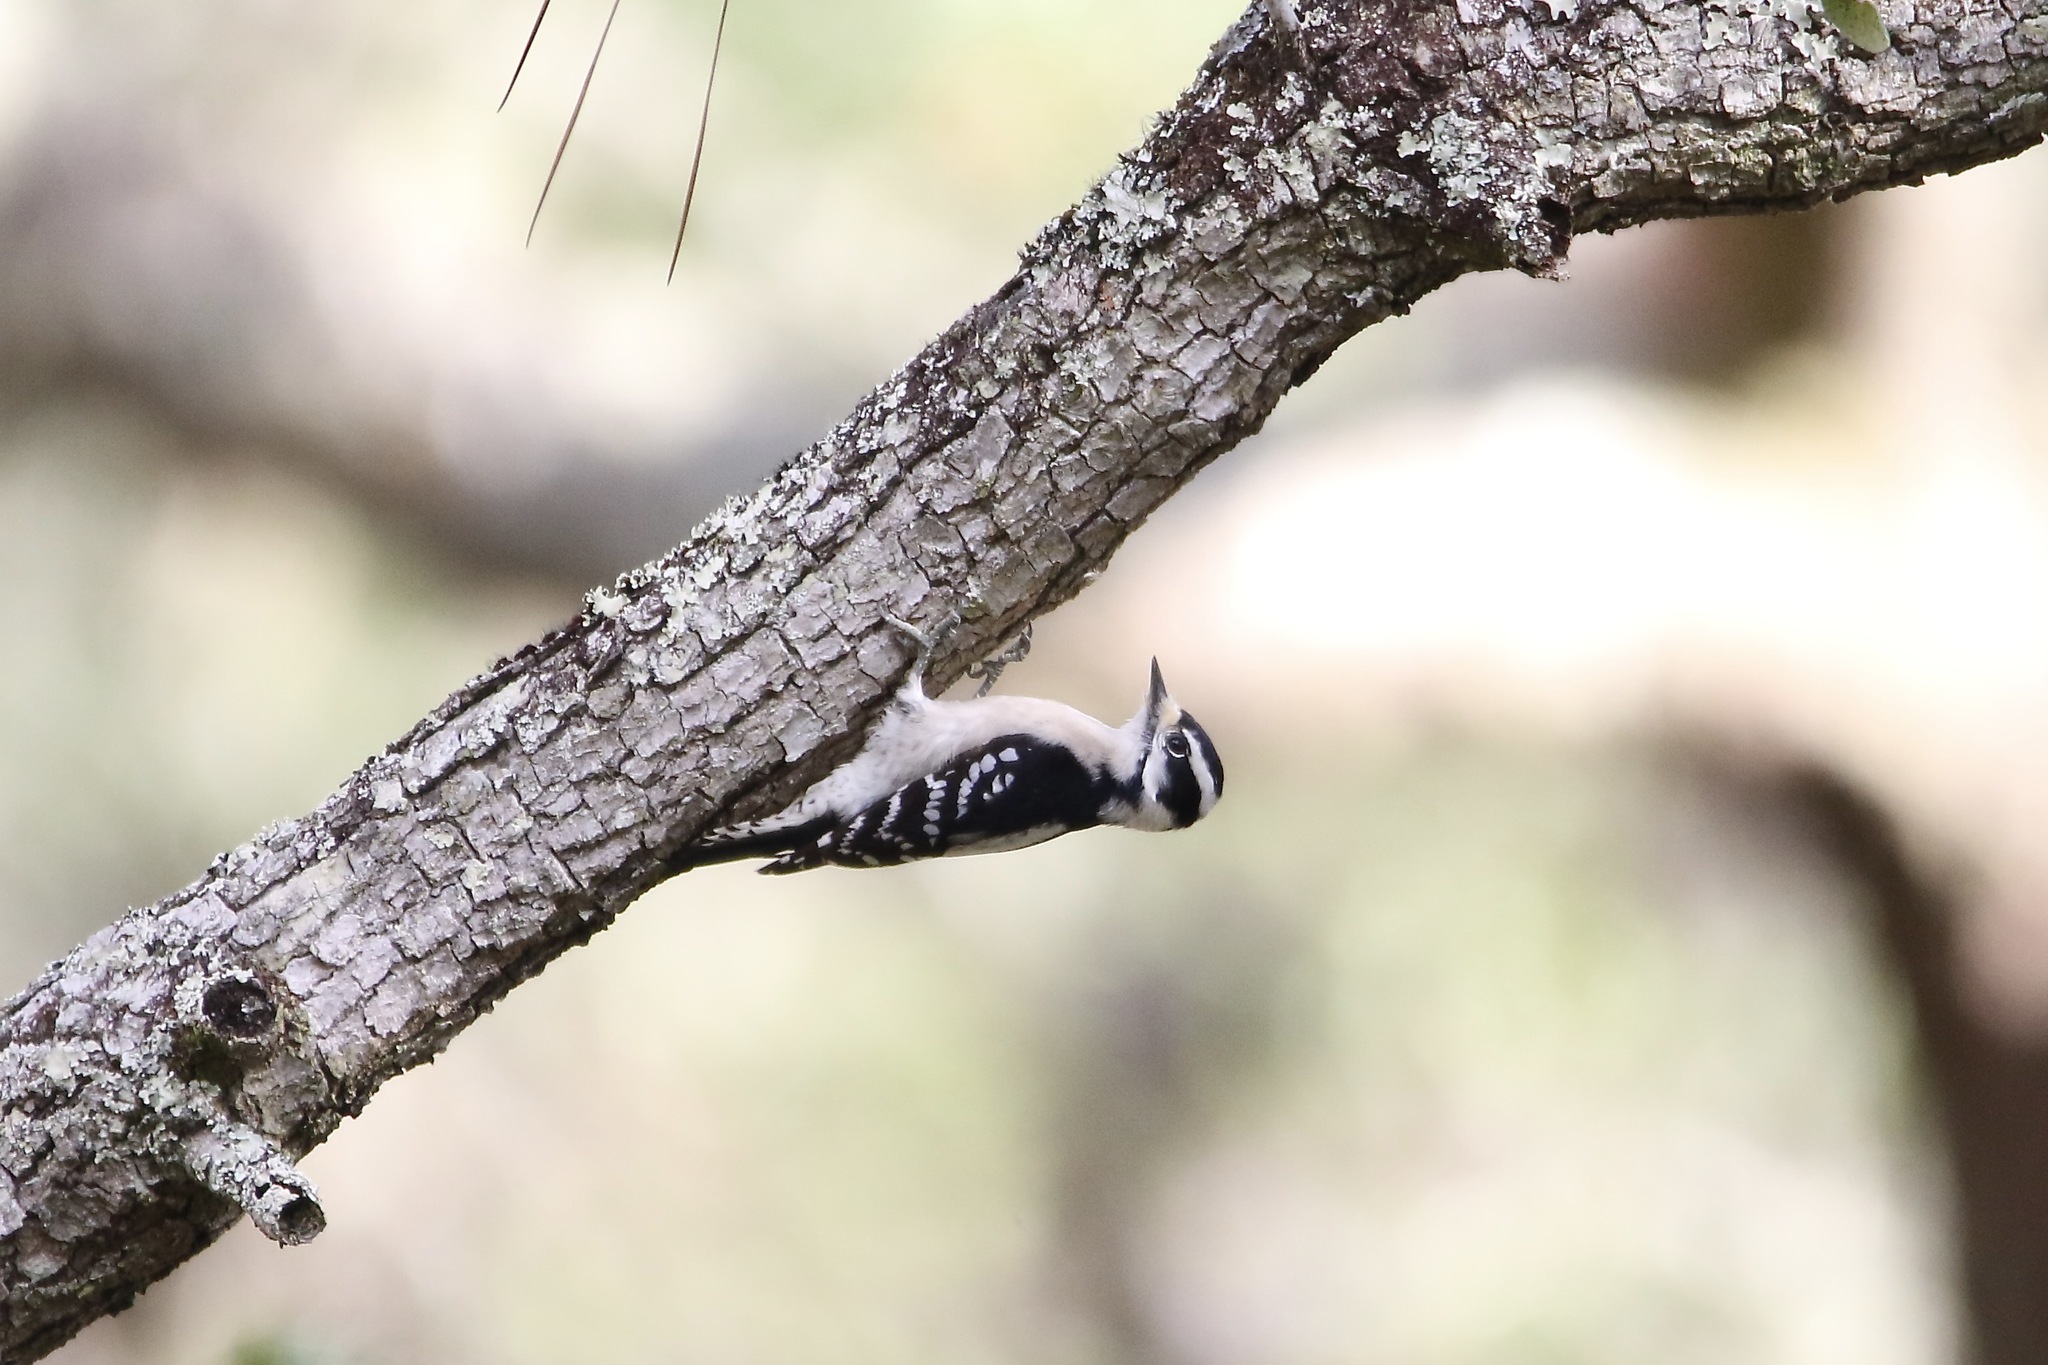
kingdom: Animalia
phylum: Chordata
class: Aves
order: Piciformes
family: Picidae
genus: Dryobates
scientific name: Dryobates pubescens
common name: Downy woodpecker
